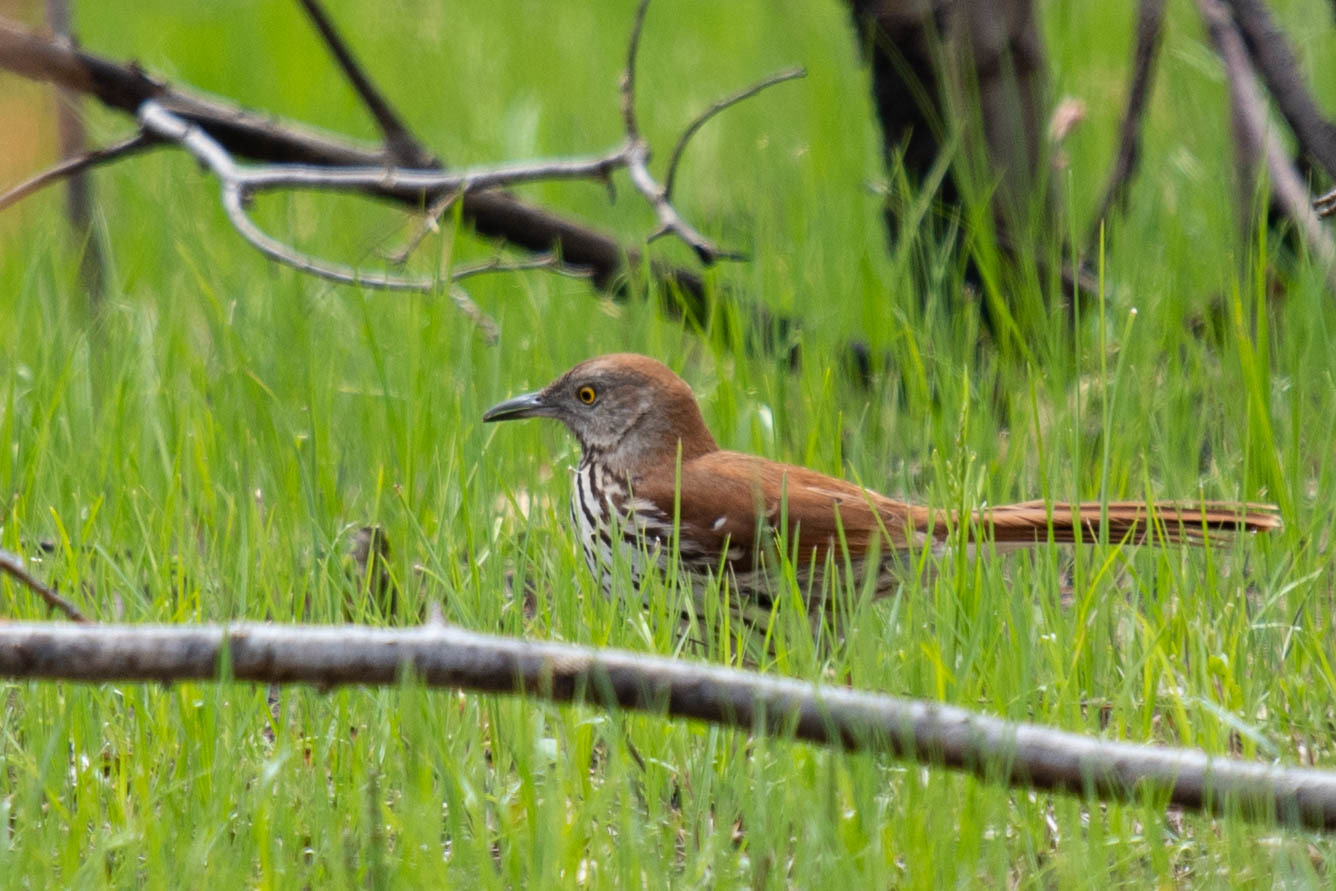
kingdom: Animalia
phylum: Chordata
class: Aves
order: Passeriformes
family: Mimidae
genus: Toxostoma
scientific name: Toxostoma rufum
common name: Brown thrasher
